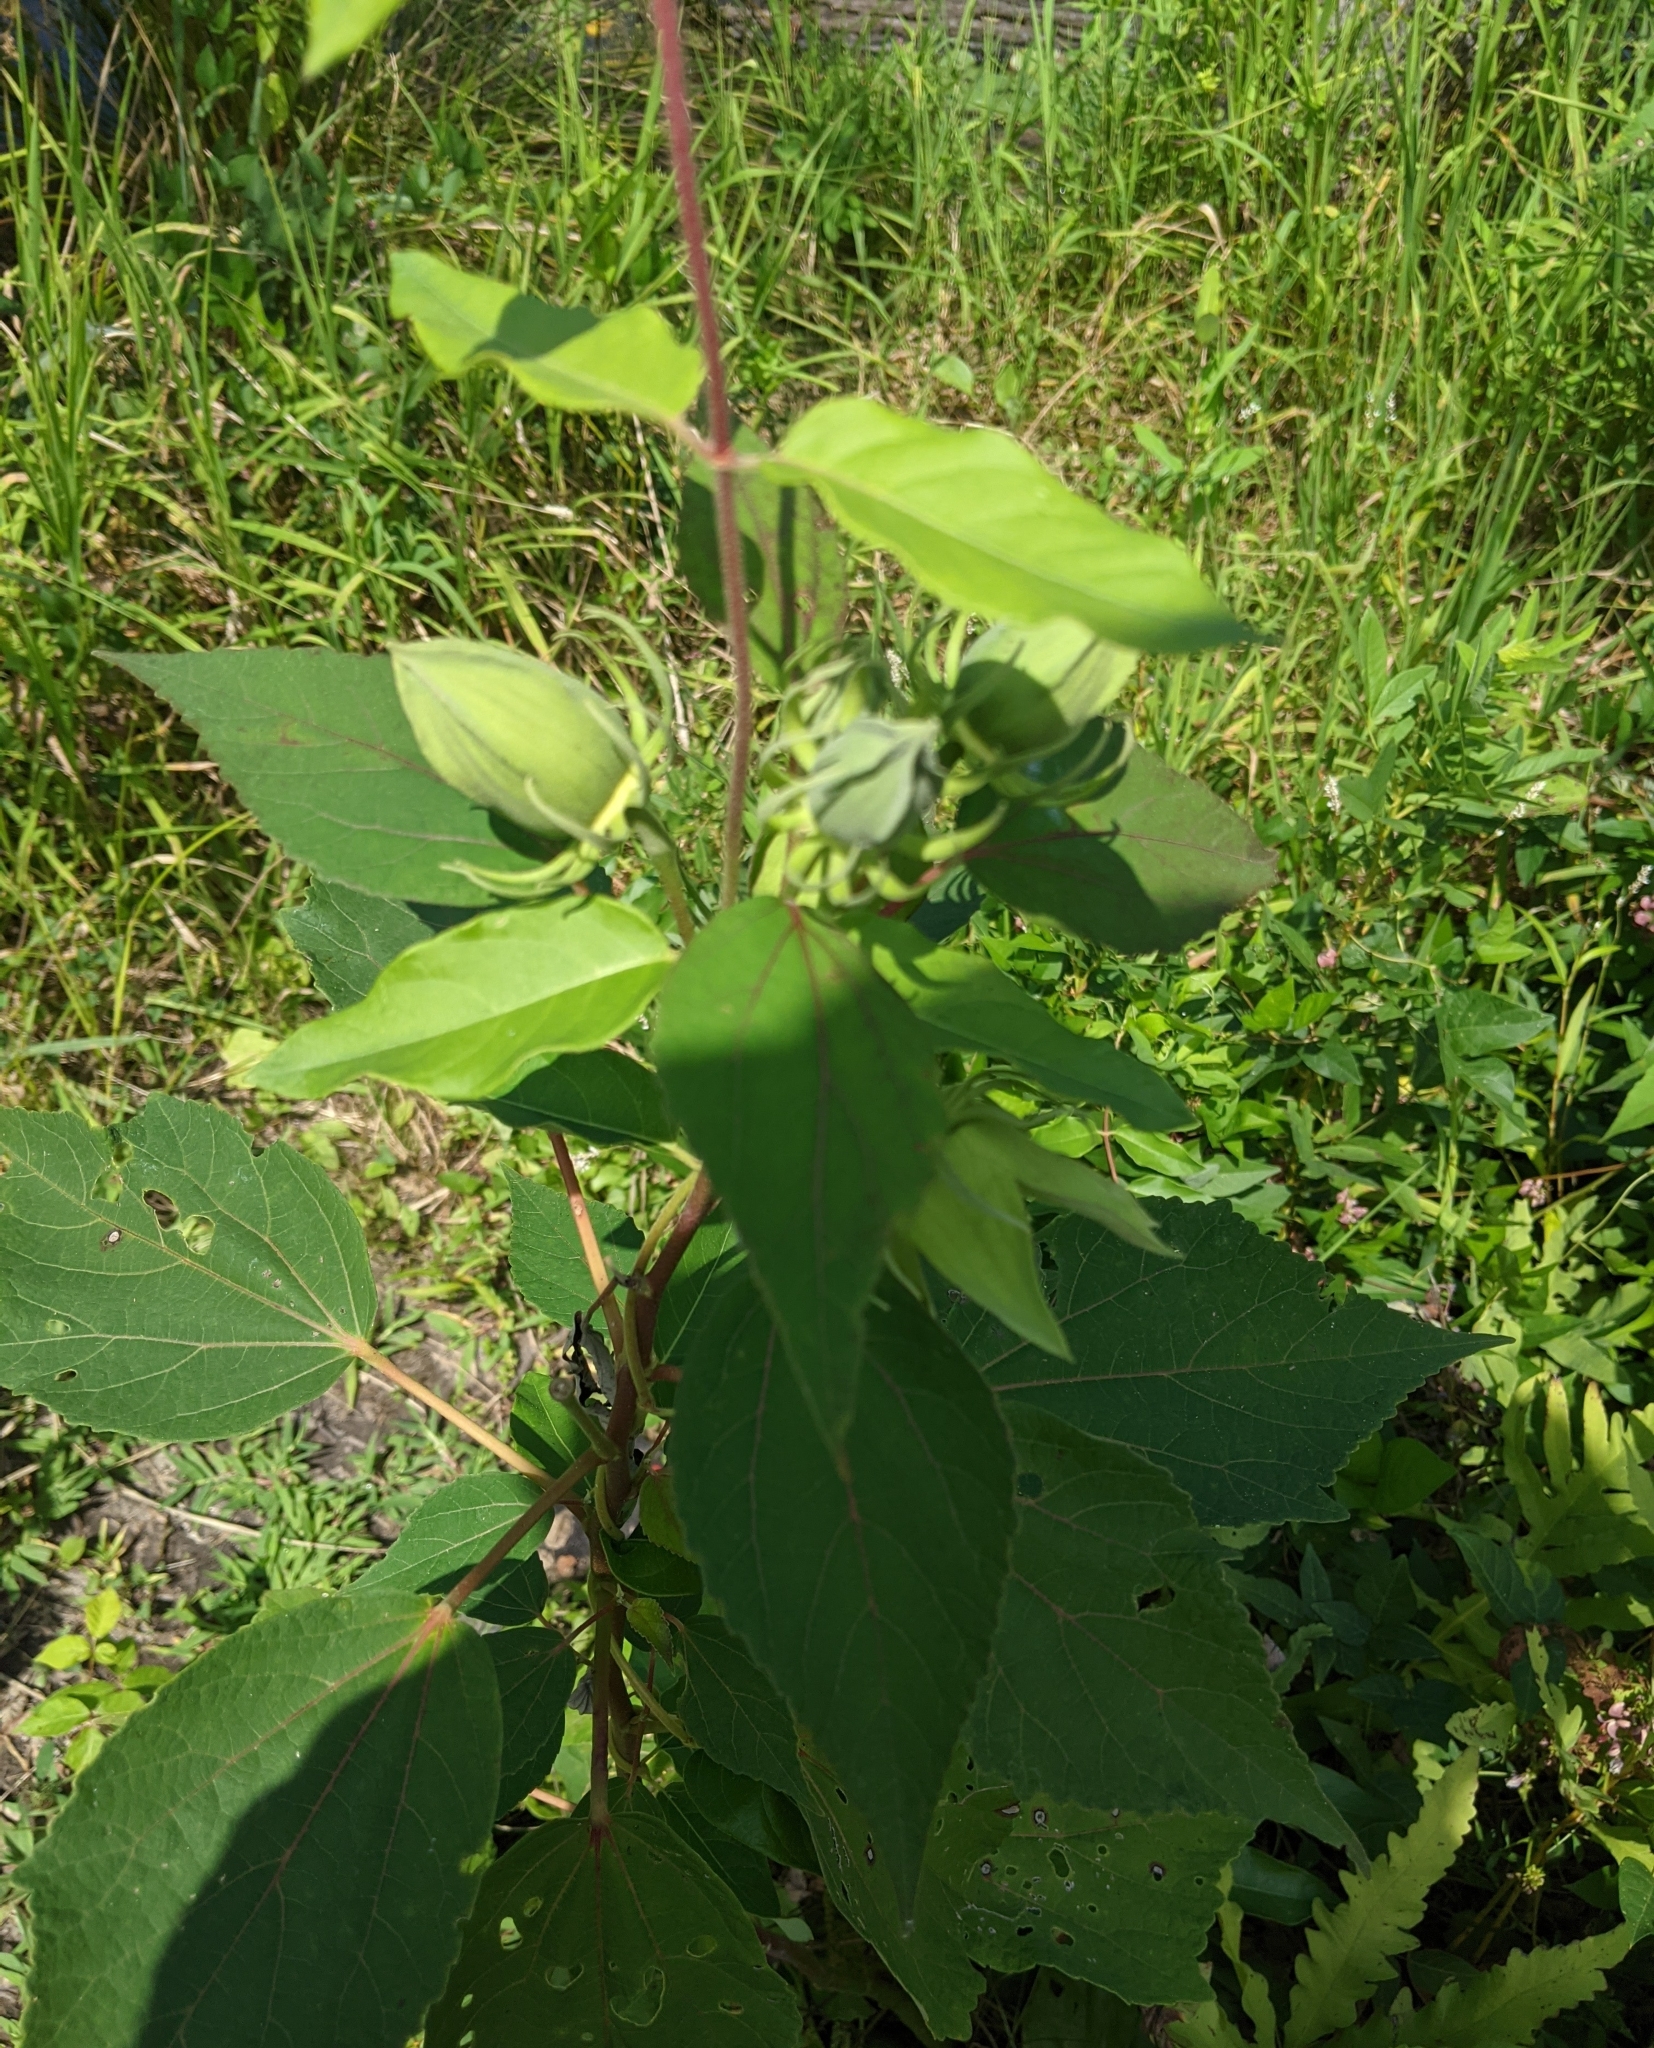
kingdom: Plantae
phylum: Tracheophyta
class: Magnoliopsida
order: Malvales
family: Malvaceae
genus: Hibiscus
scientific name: Hibiscus moscheutos
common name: Common rose-mallow
